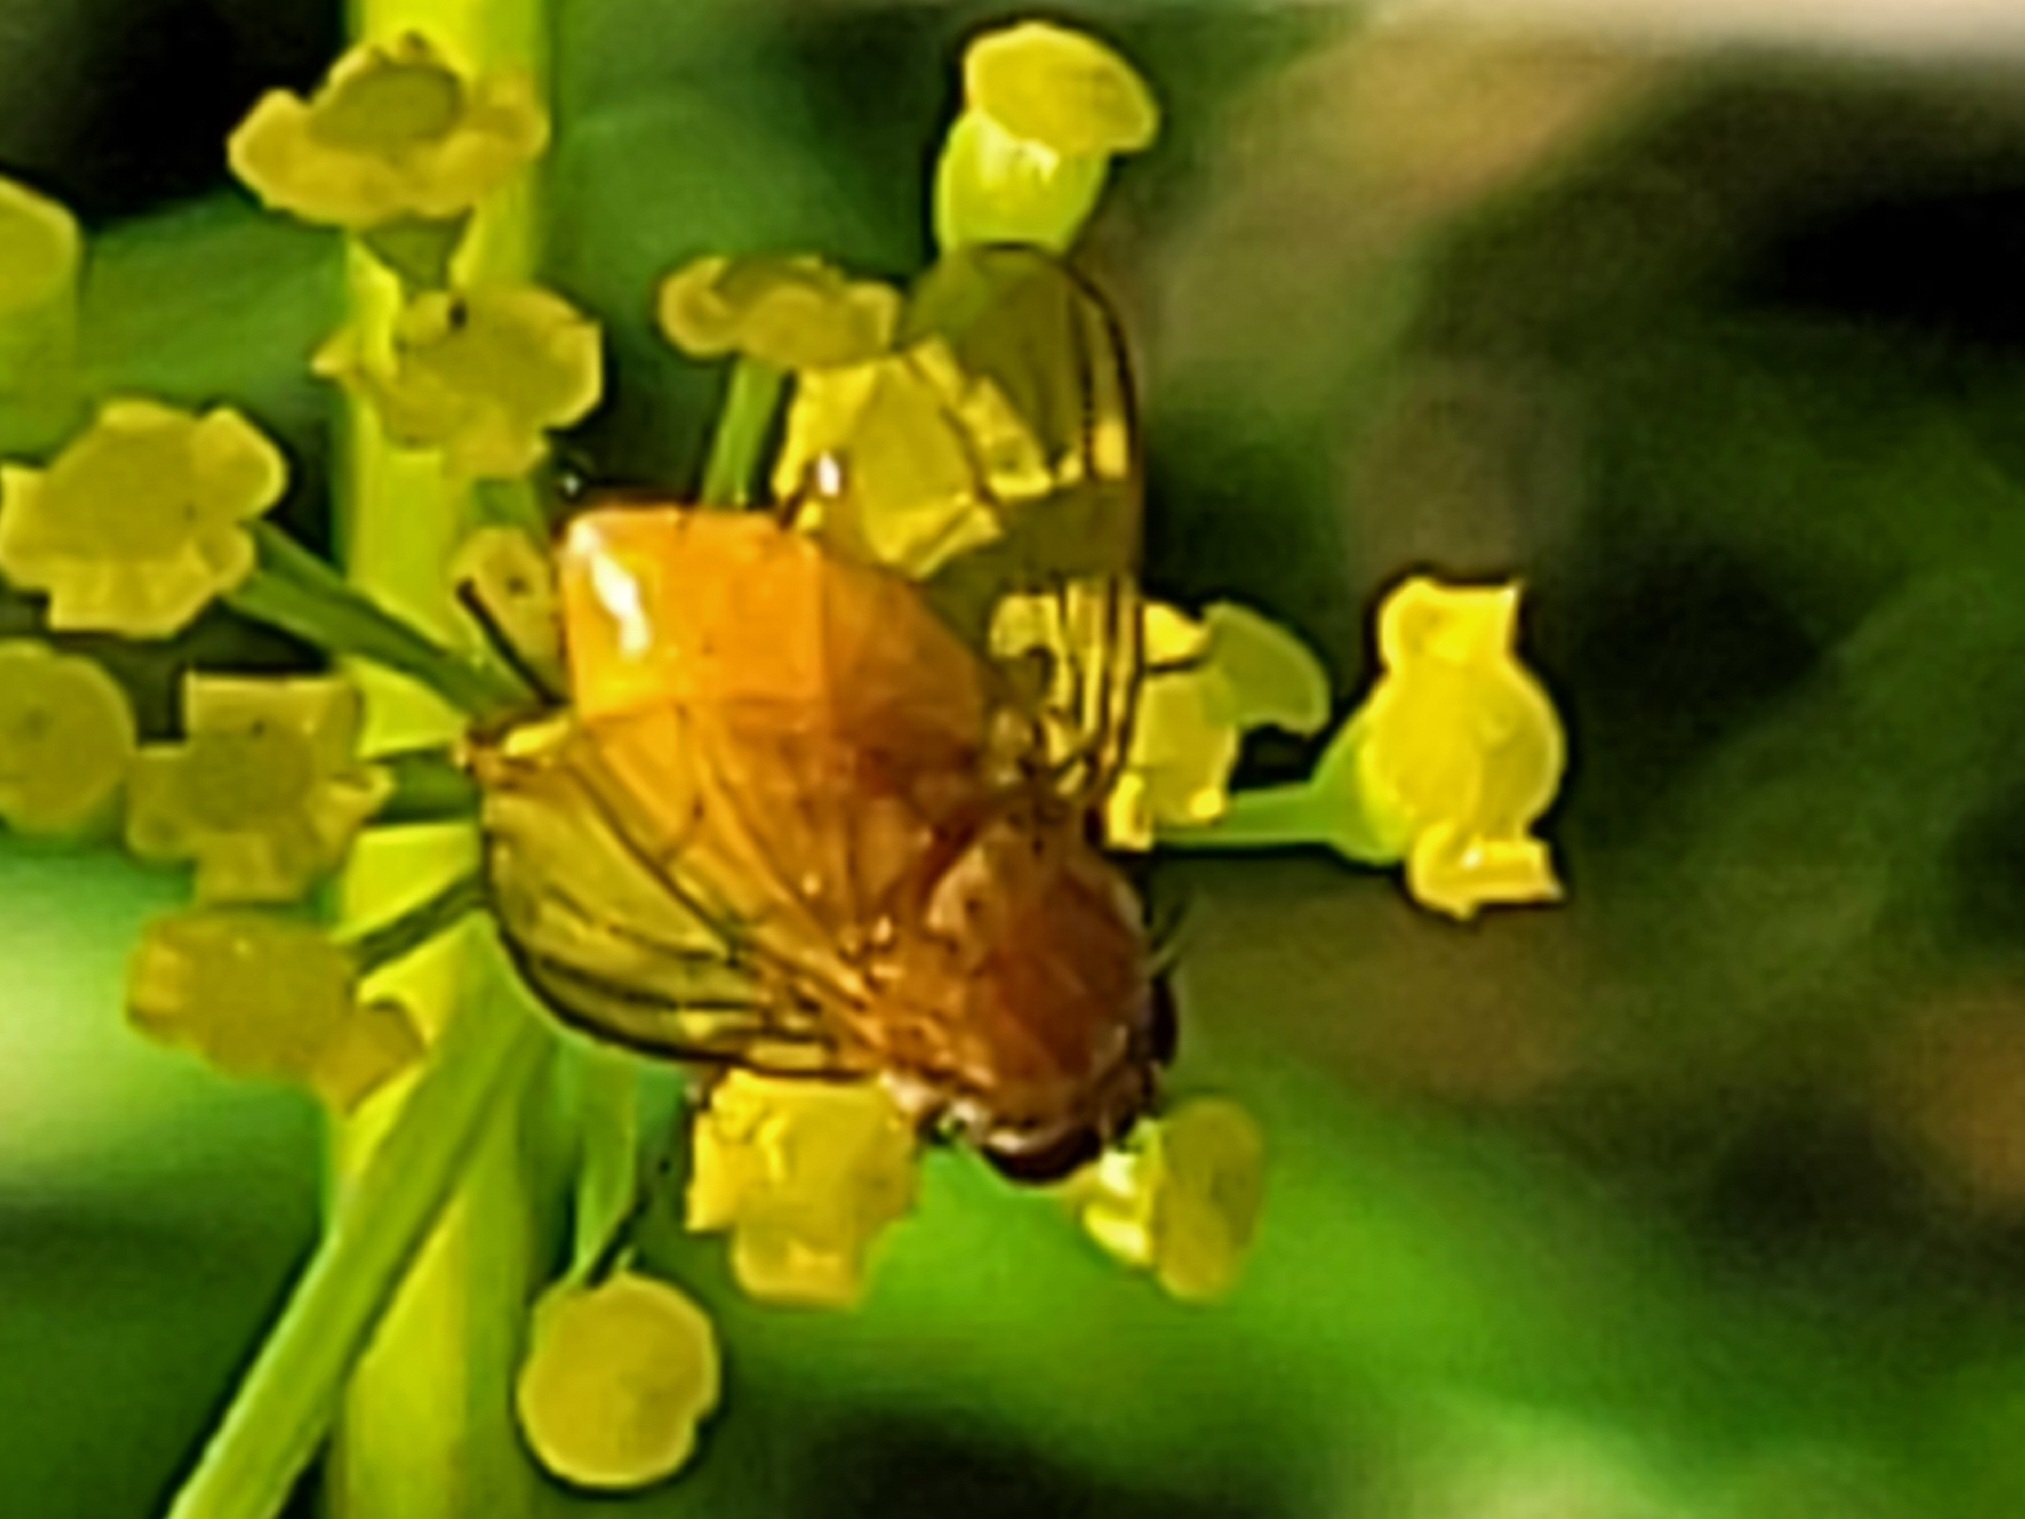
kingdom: Animalia
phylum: Arthropoda
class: Insecta
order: Diptera
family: Muscidae
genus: Phaonia
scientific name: Phaonia pallida
